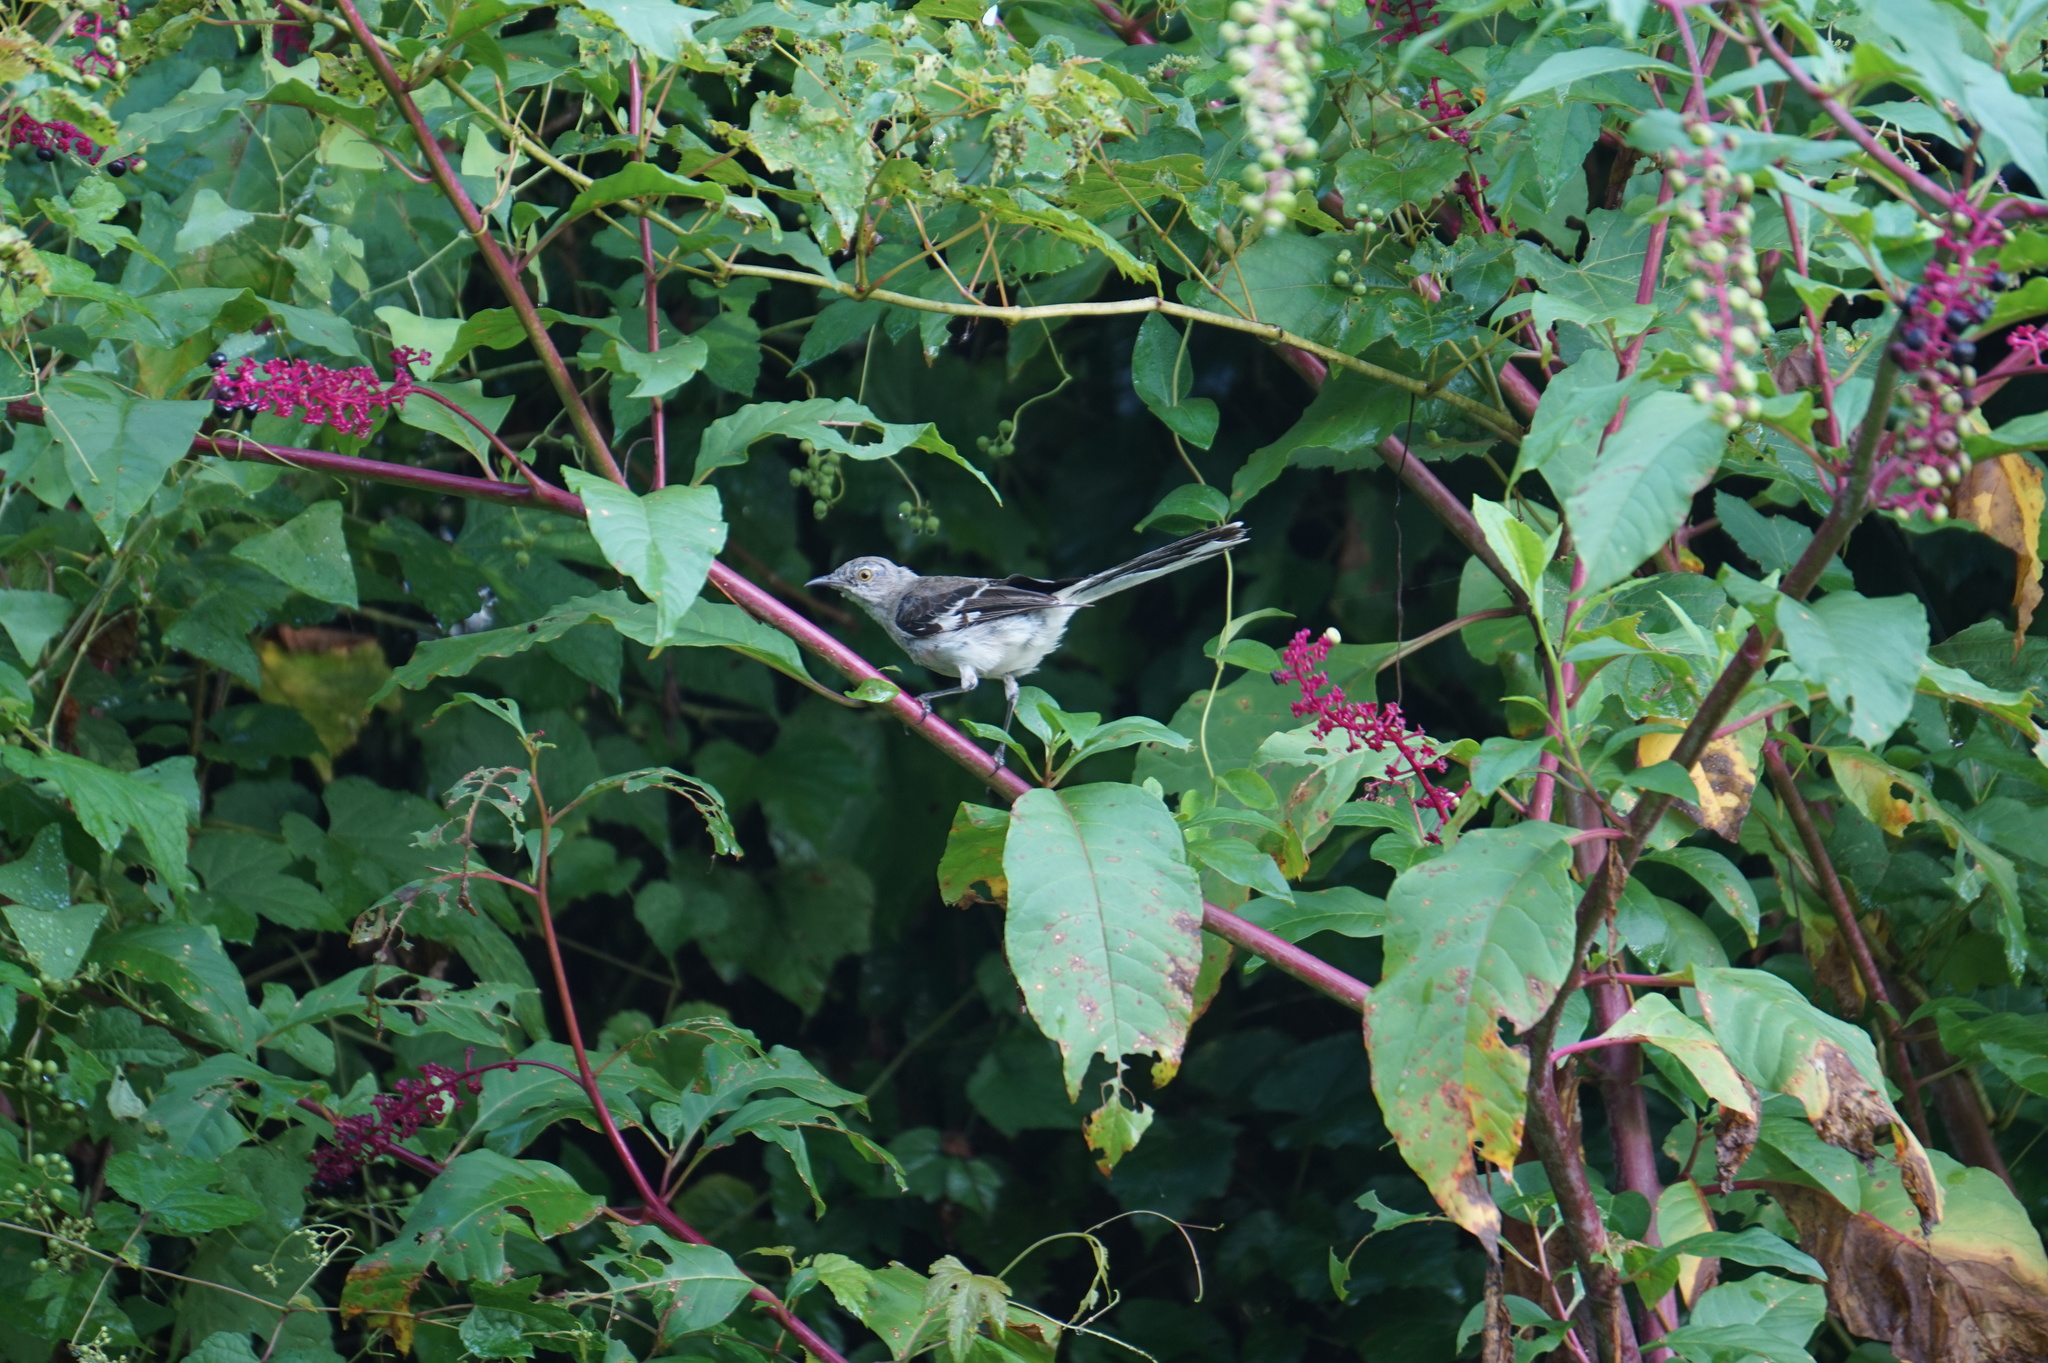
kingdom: Animalia
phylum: Chordata
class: Aves
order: Passeriformes
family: Mimidae
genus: Mimus
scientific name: Mimus polyglottos
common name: Northern mockingbird
